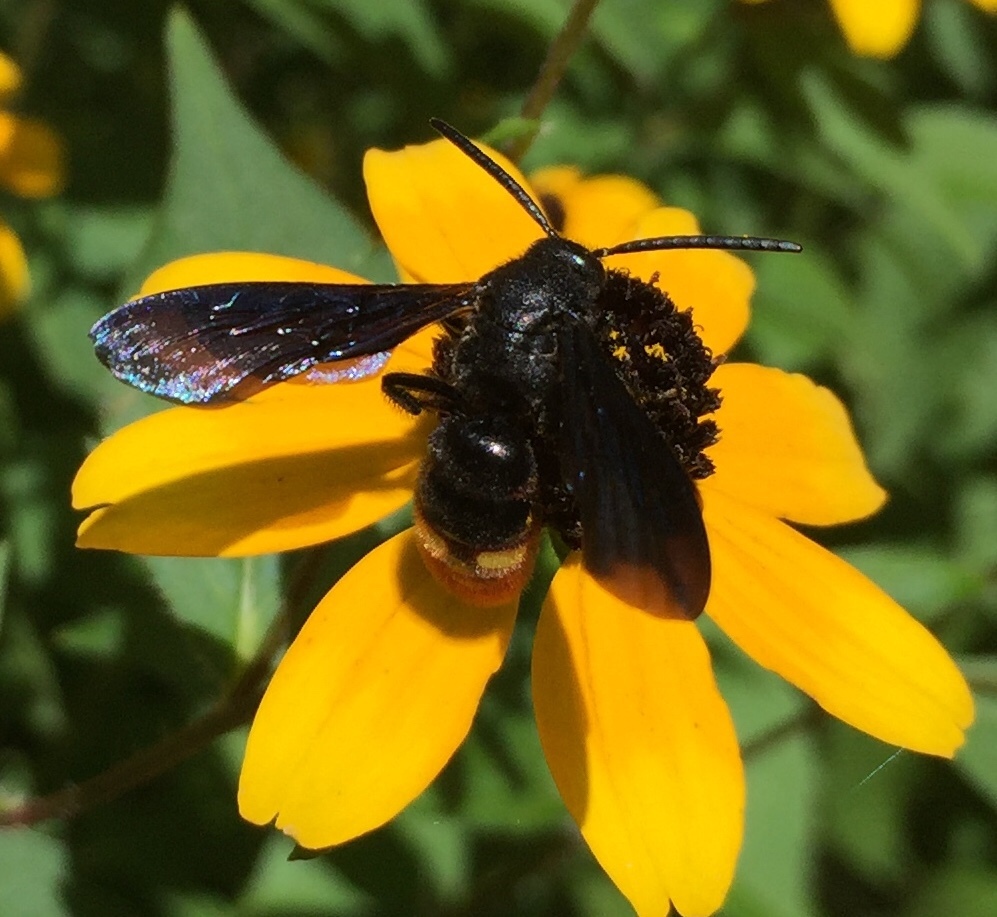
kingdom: Animalia
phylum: Arthropoda
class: Insecta
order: Hymenoptera
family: Scoliidae
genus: Scolia
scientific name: Scolia dubia
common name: Blue-winged scoliid wasp
